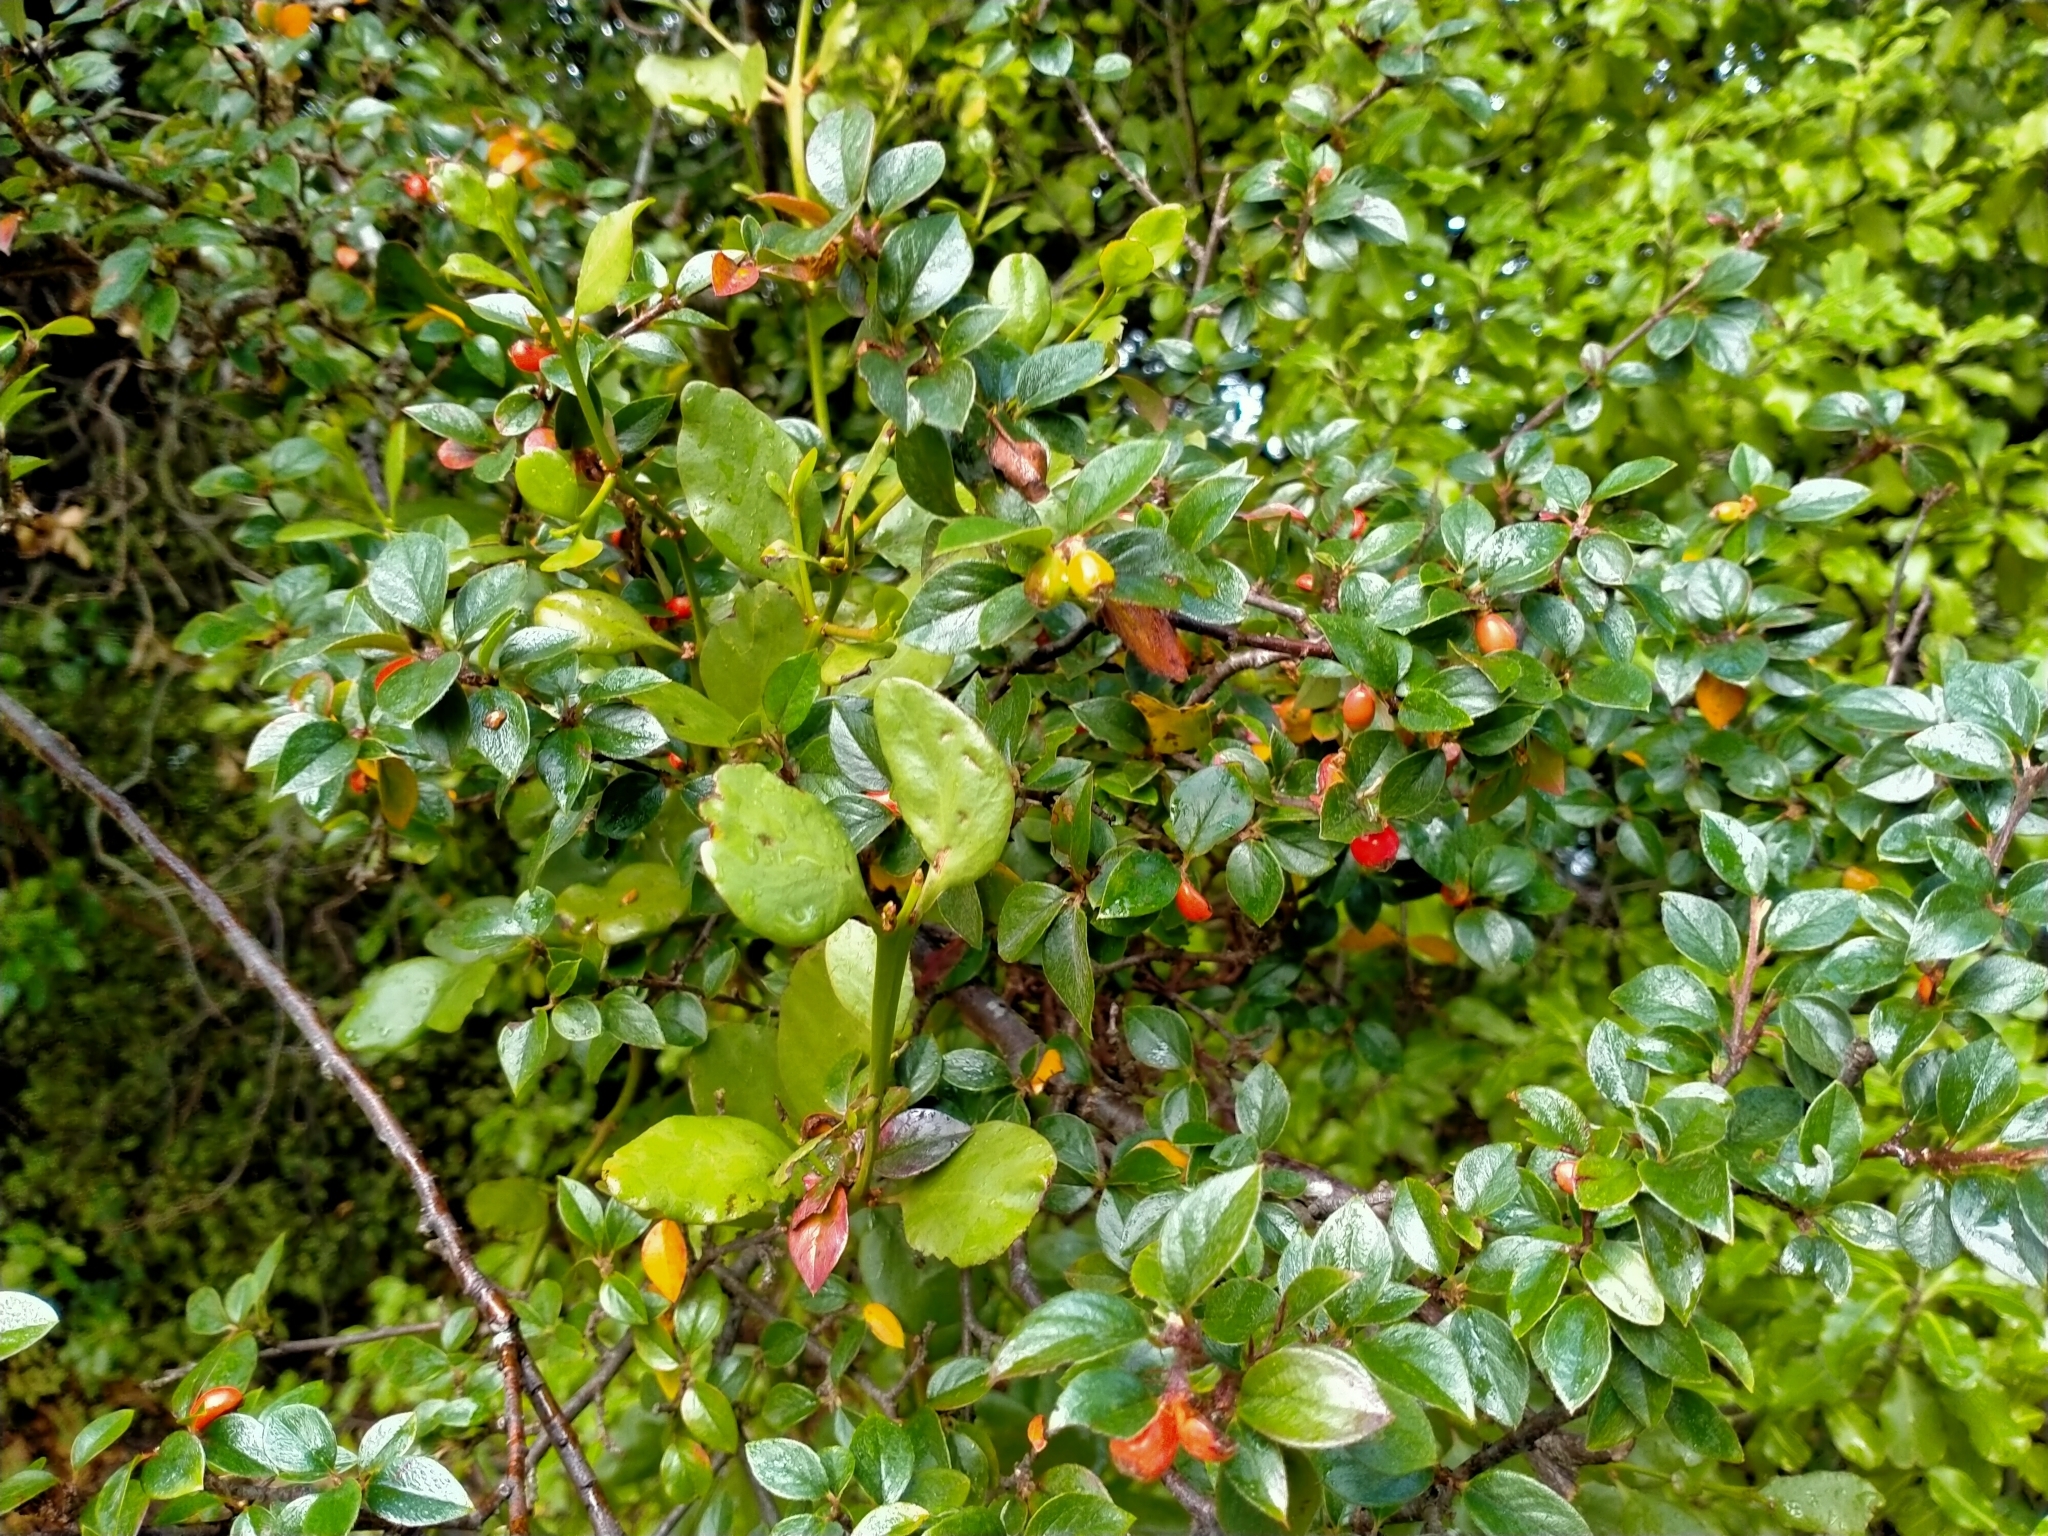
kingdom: Plantae
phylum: Tracheophyta
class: Magnoliopsida
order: Santalales
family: Loranthaceae
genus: Ileostylus
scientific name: Ileostylus micranthus
